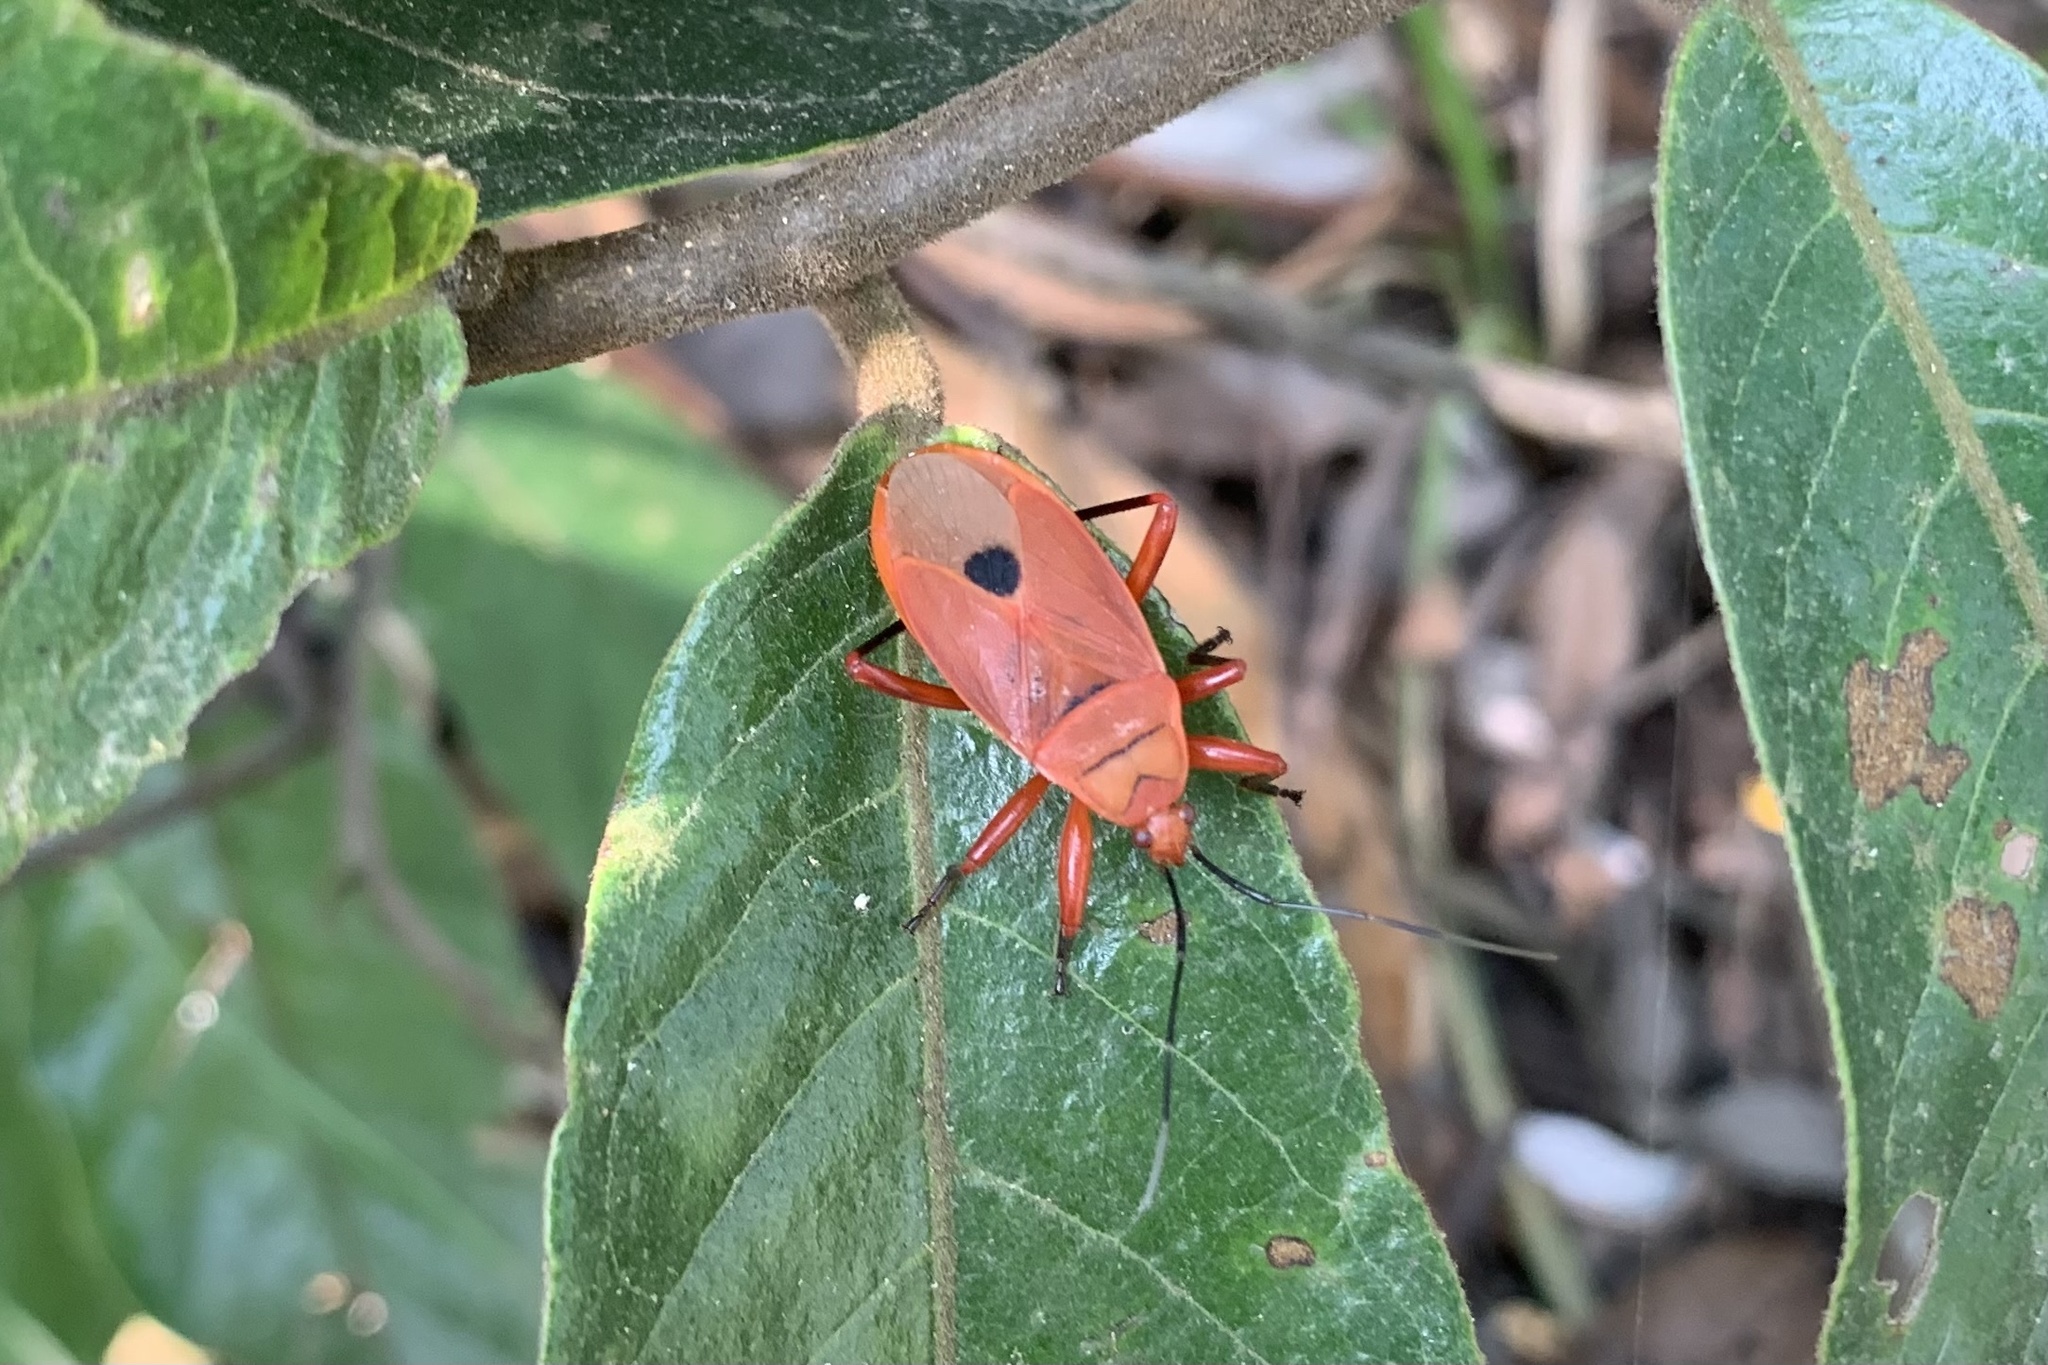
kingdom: Animalia
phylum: Arthropoda
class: Insecta
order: Hemiptera
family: Pyrrhocoridae
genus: Antilochus
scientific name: Antilochus
